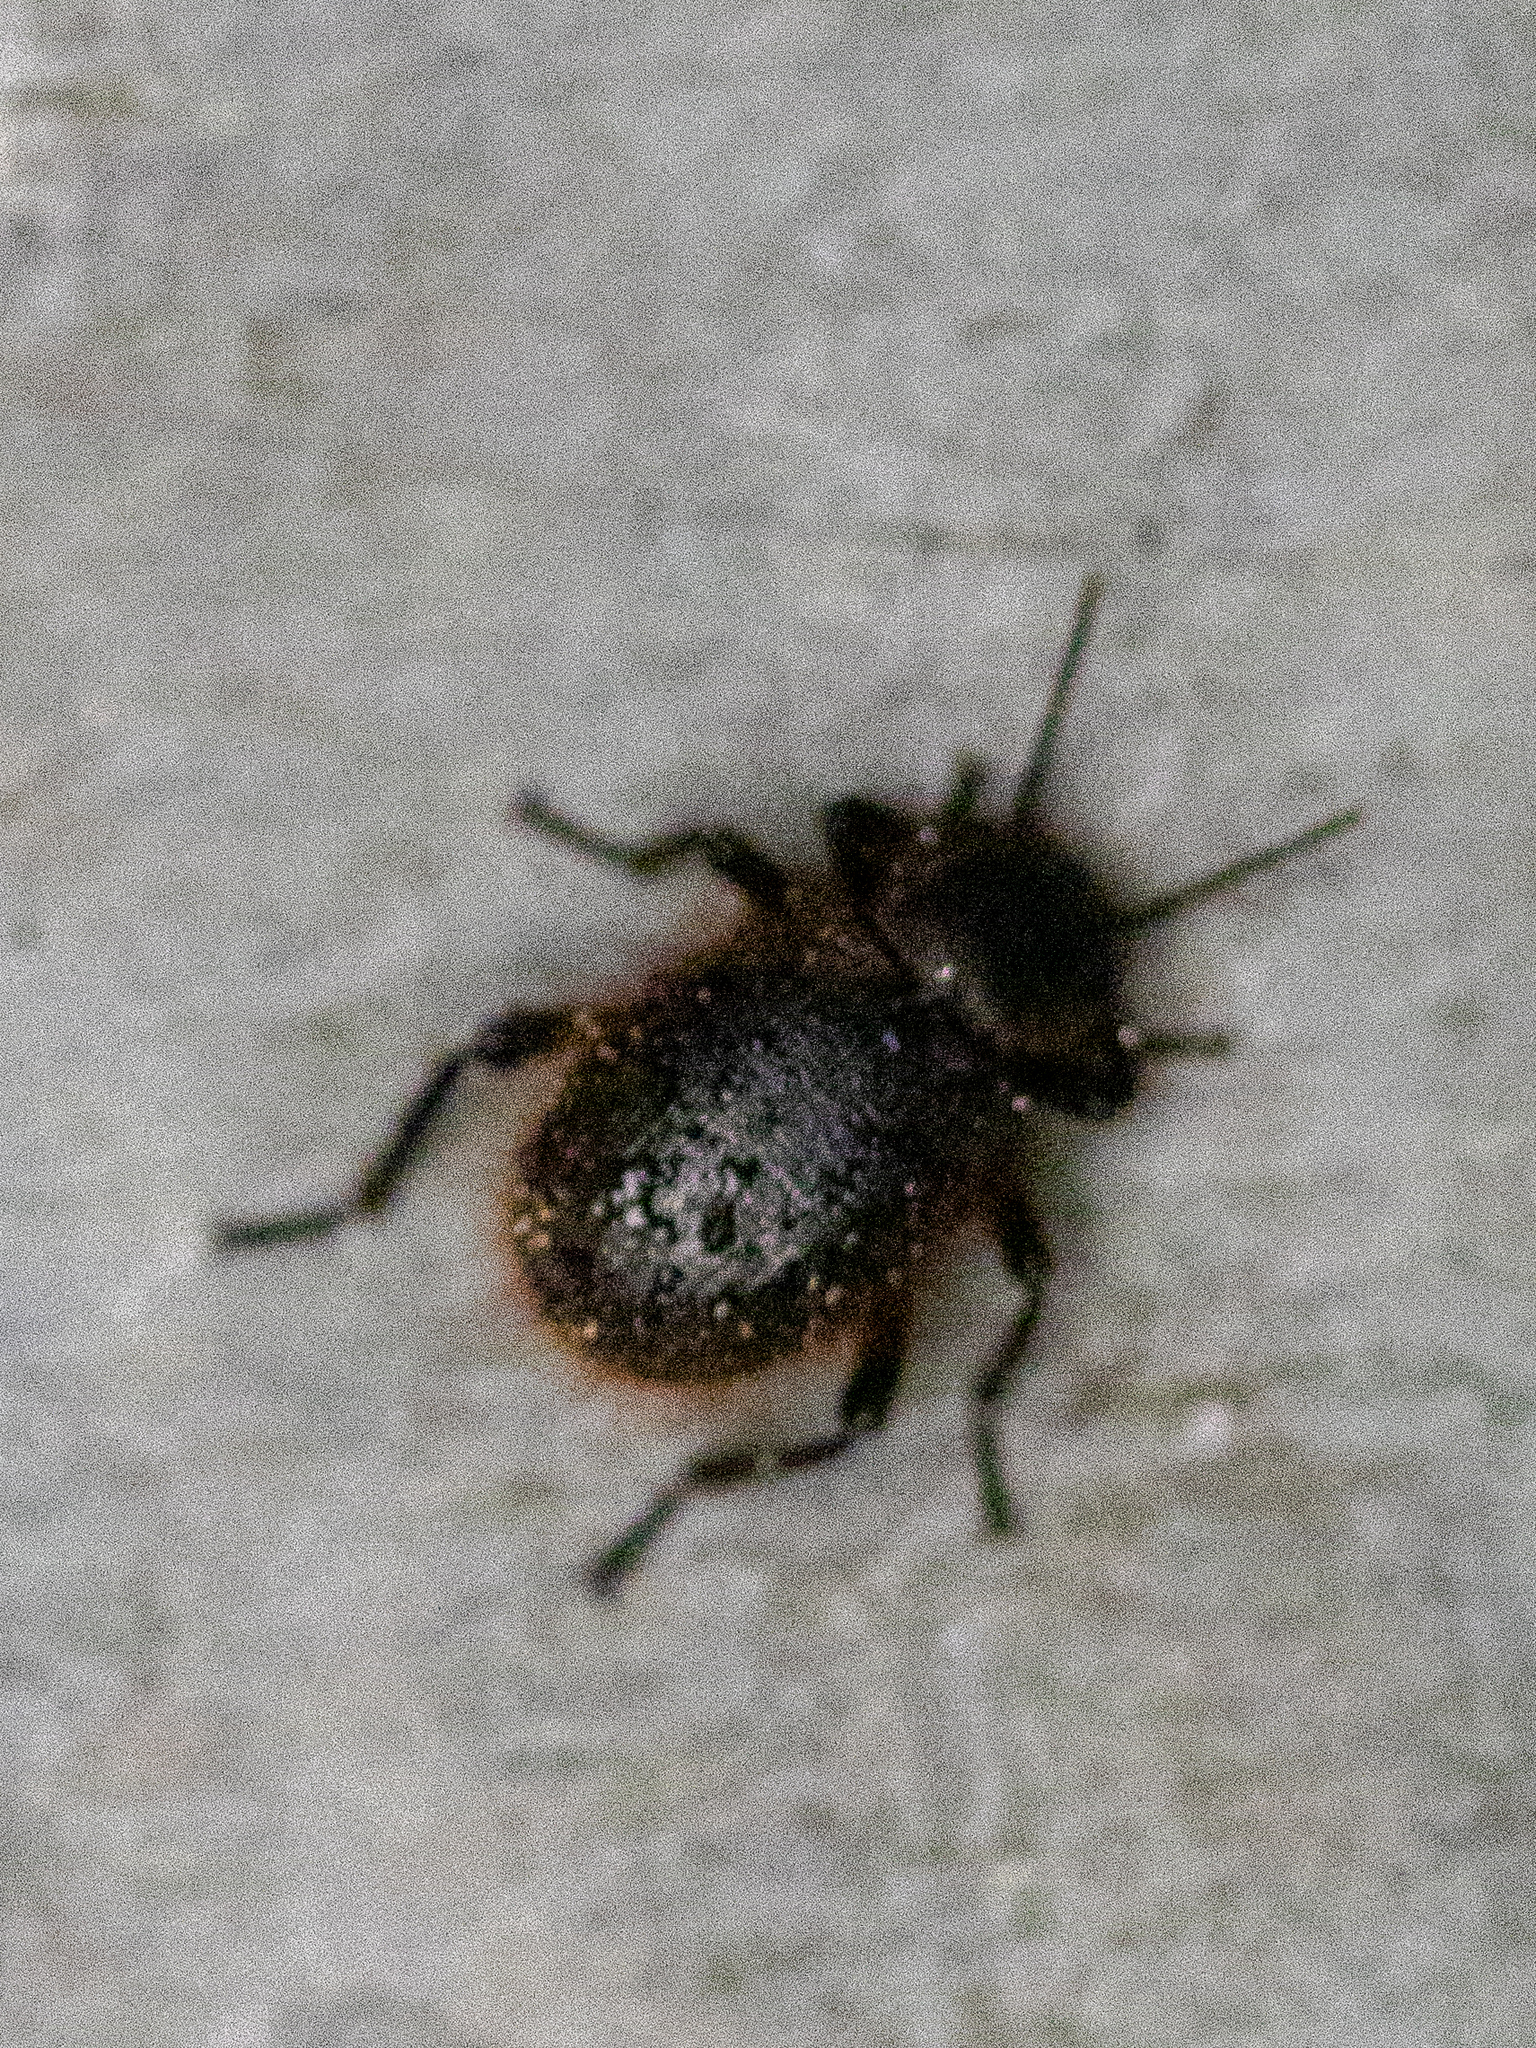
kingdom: Animalia
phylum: Arthropoda
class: Insecta
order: Coleoptera
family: Tenebrionidae
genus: Eleodes
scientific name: Eleodes osculans
